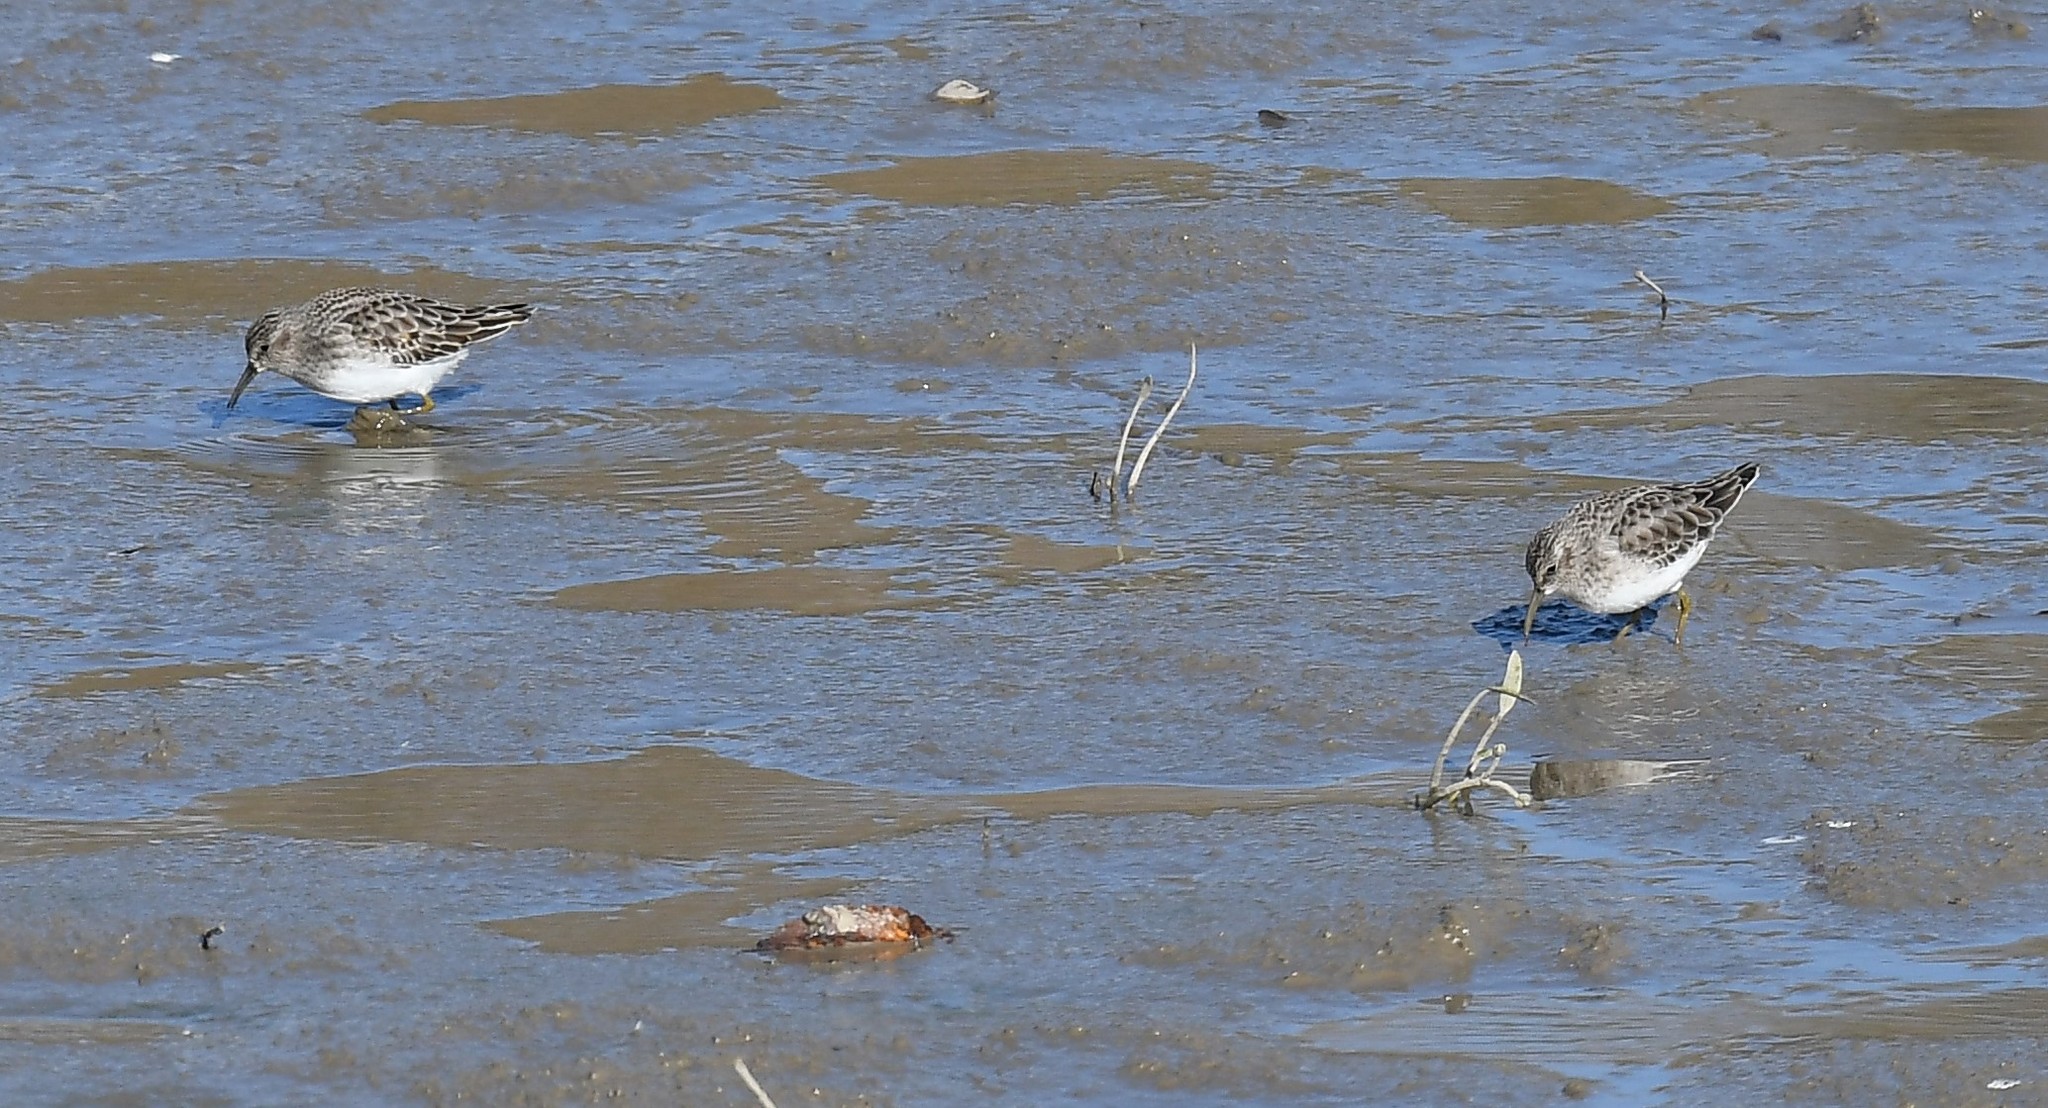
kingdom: Animalia
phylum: Chordata
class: Aves
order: Charadriiformes
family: Scolopacidae
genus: Calidris
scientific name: Calidris minutilla
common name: Least sandpiper
